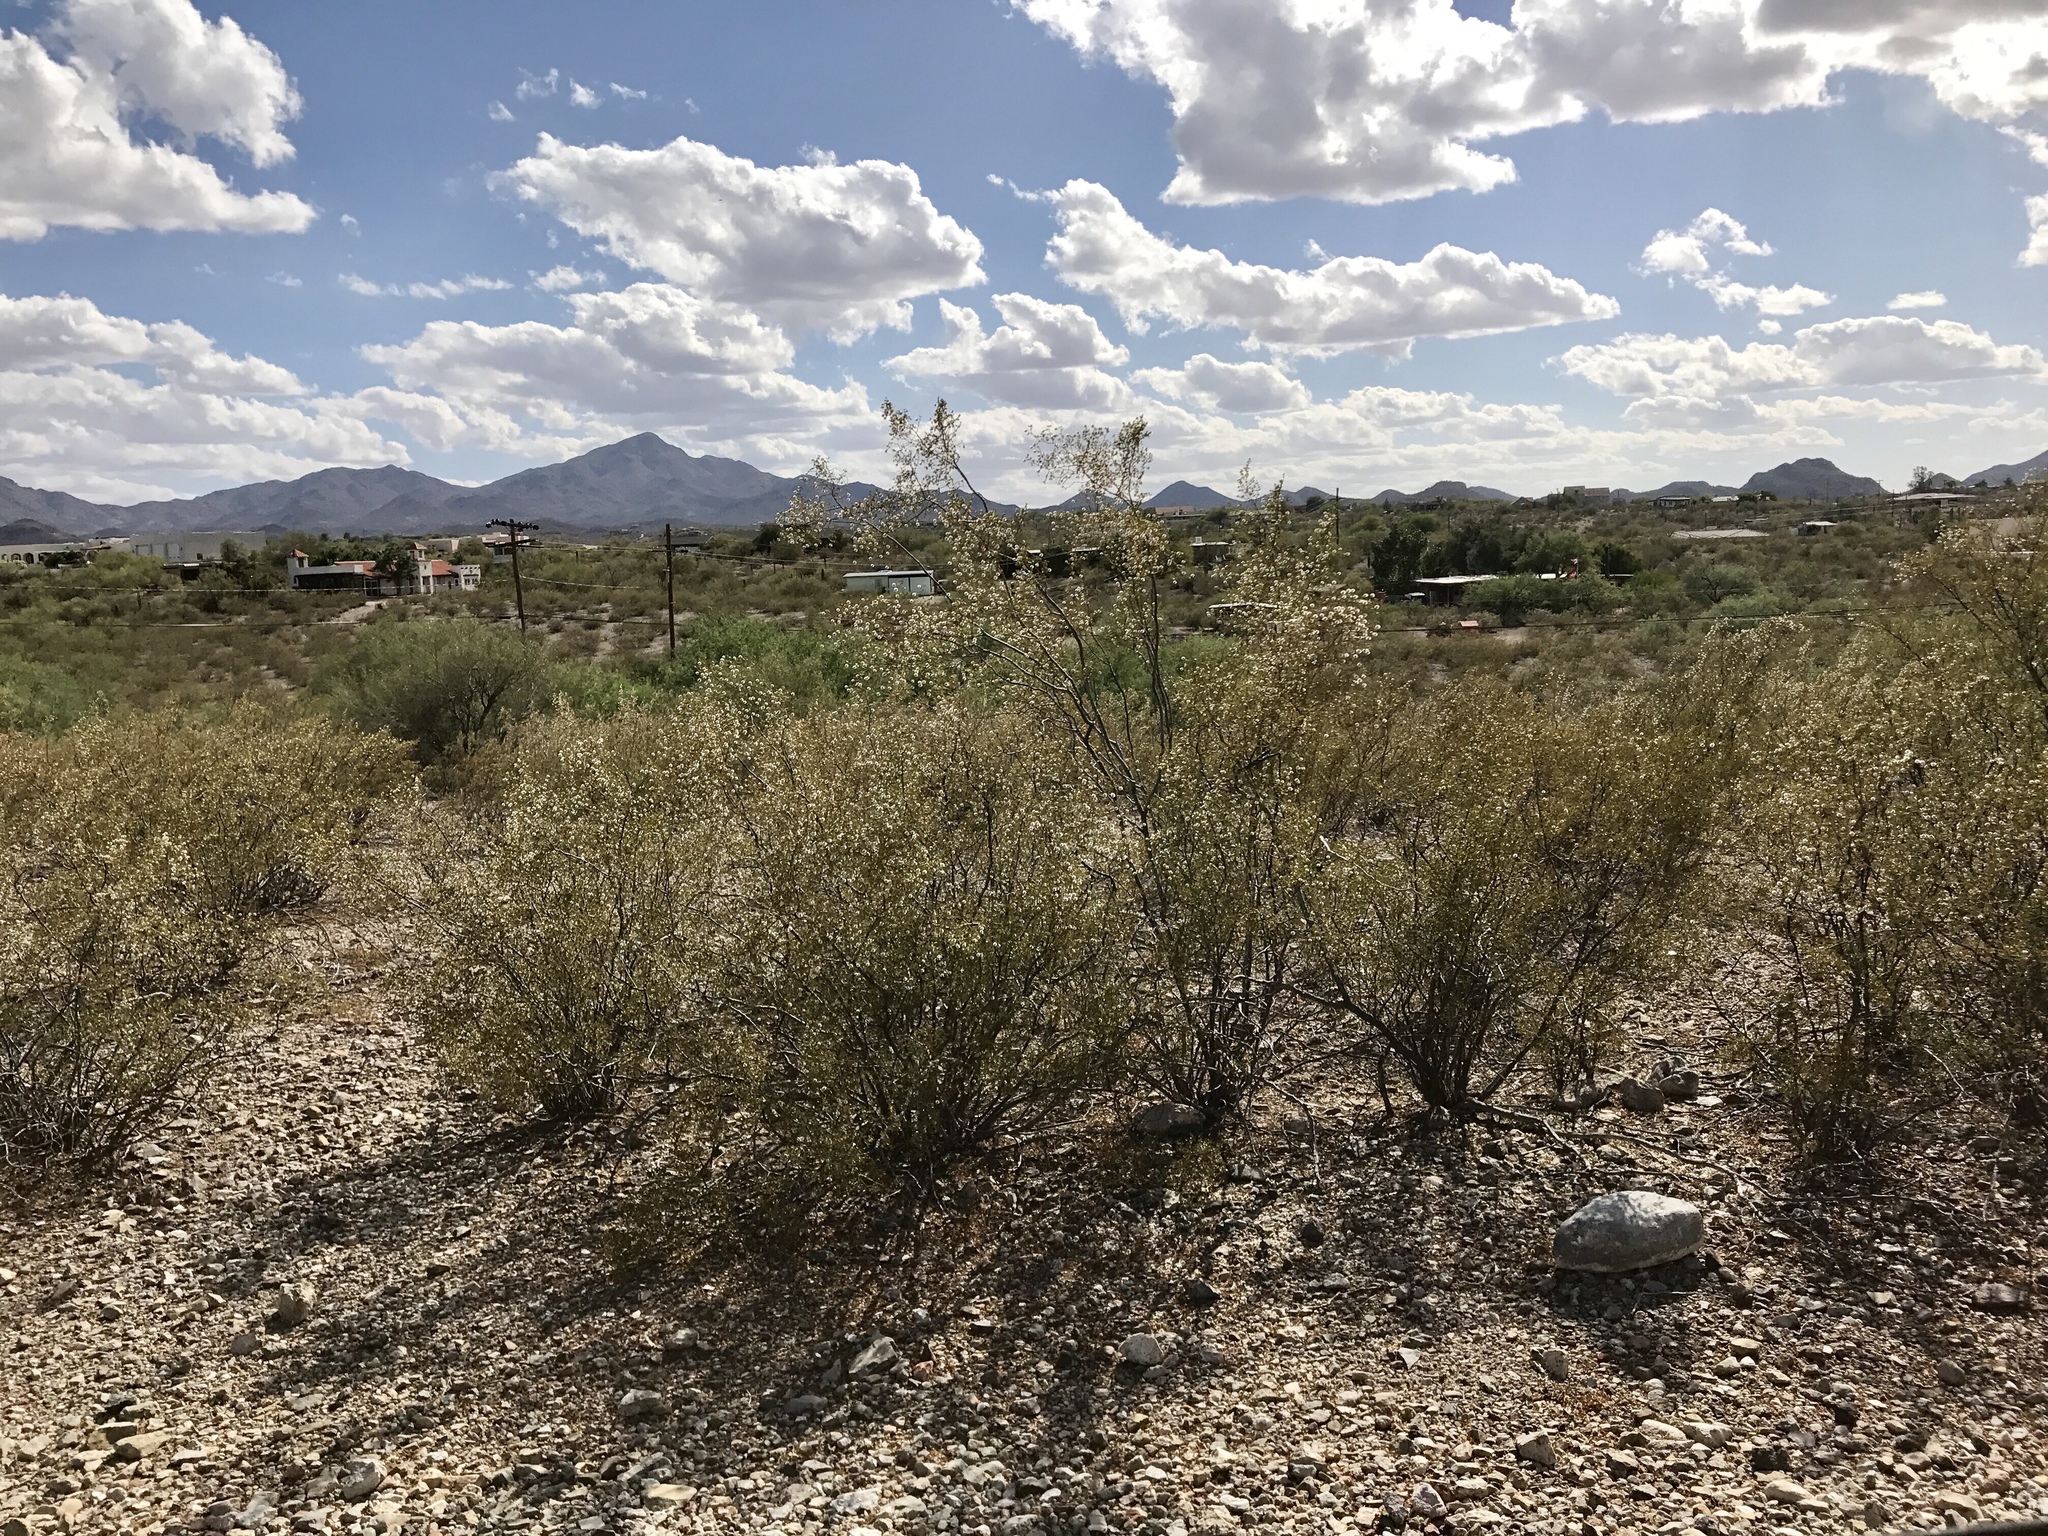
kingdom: Plantae
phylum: Tracheophyta
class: Magnoliopsida
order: Zygophyllales
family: Zygophyllaceae
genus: Larrea
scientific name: Larrea tridentata
